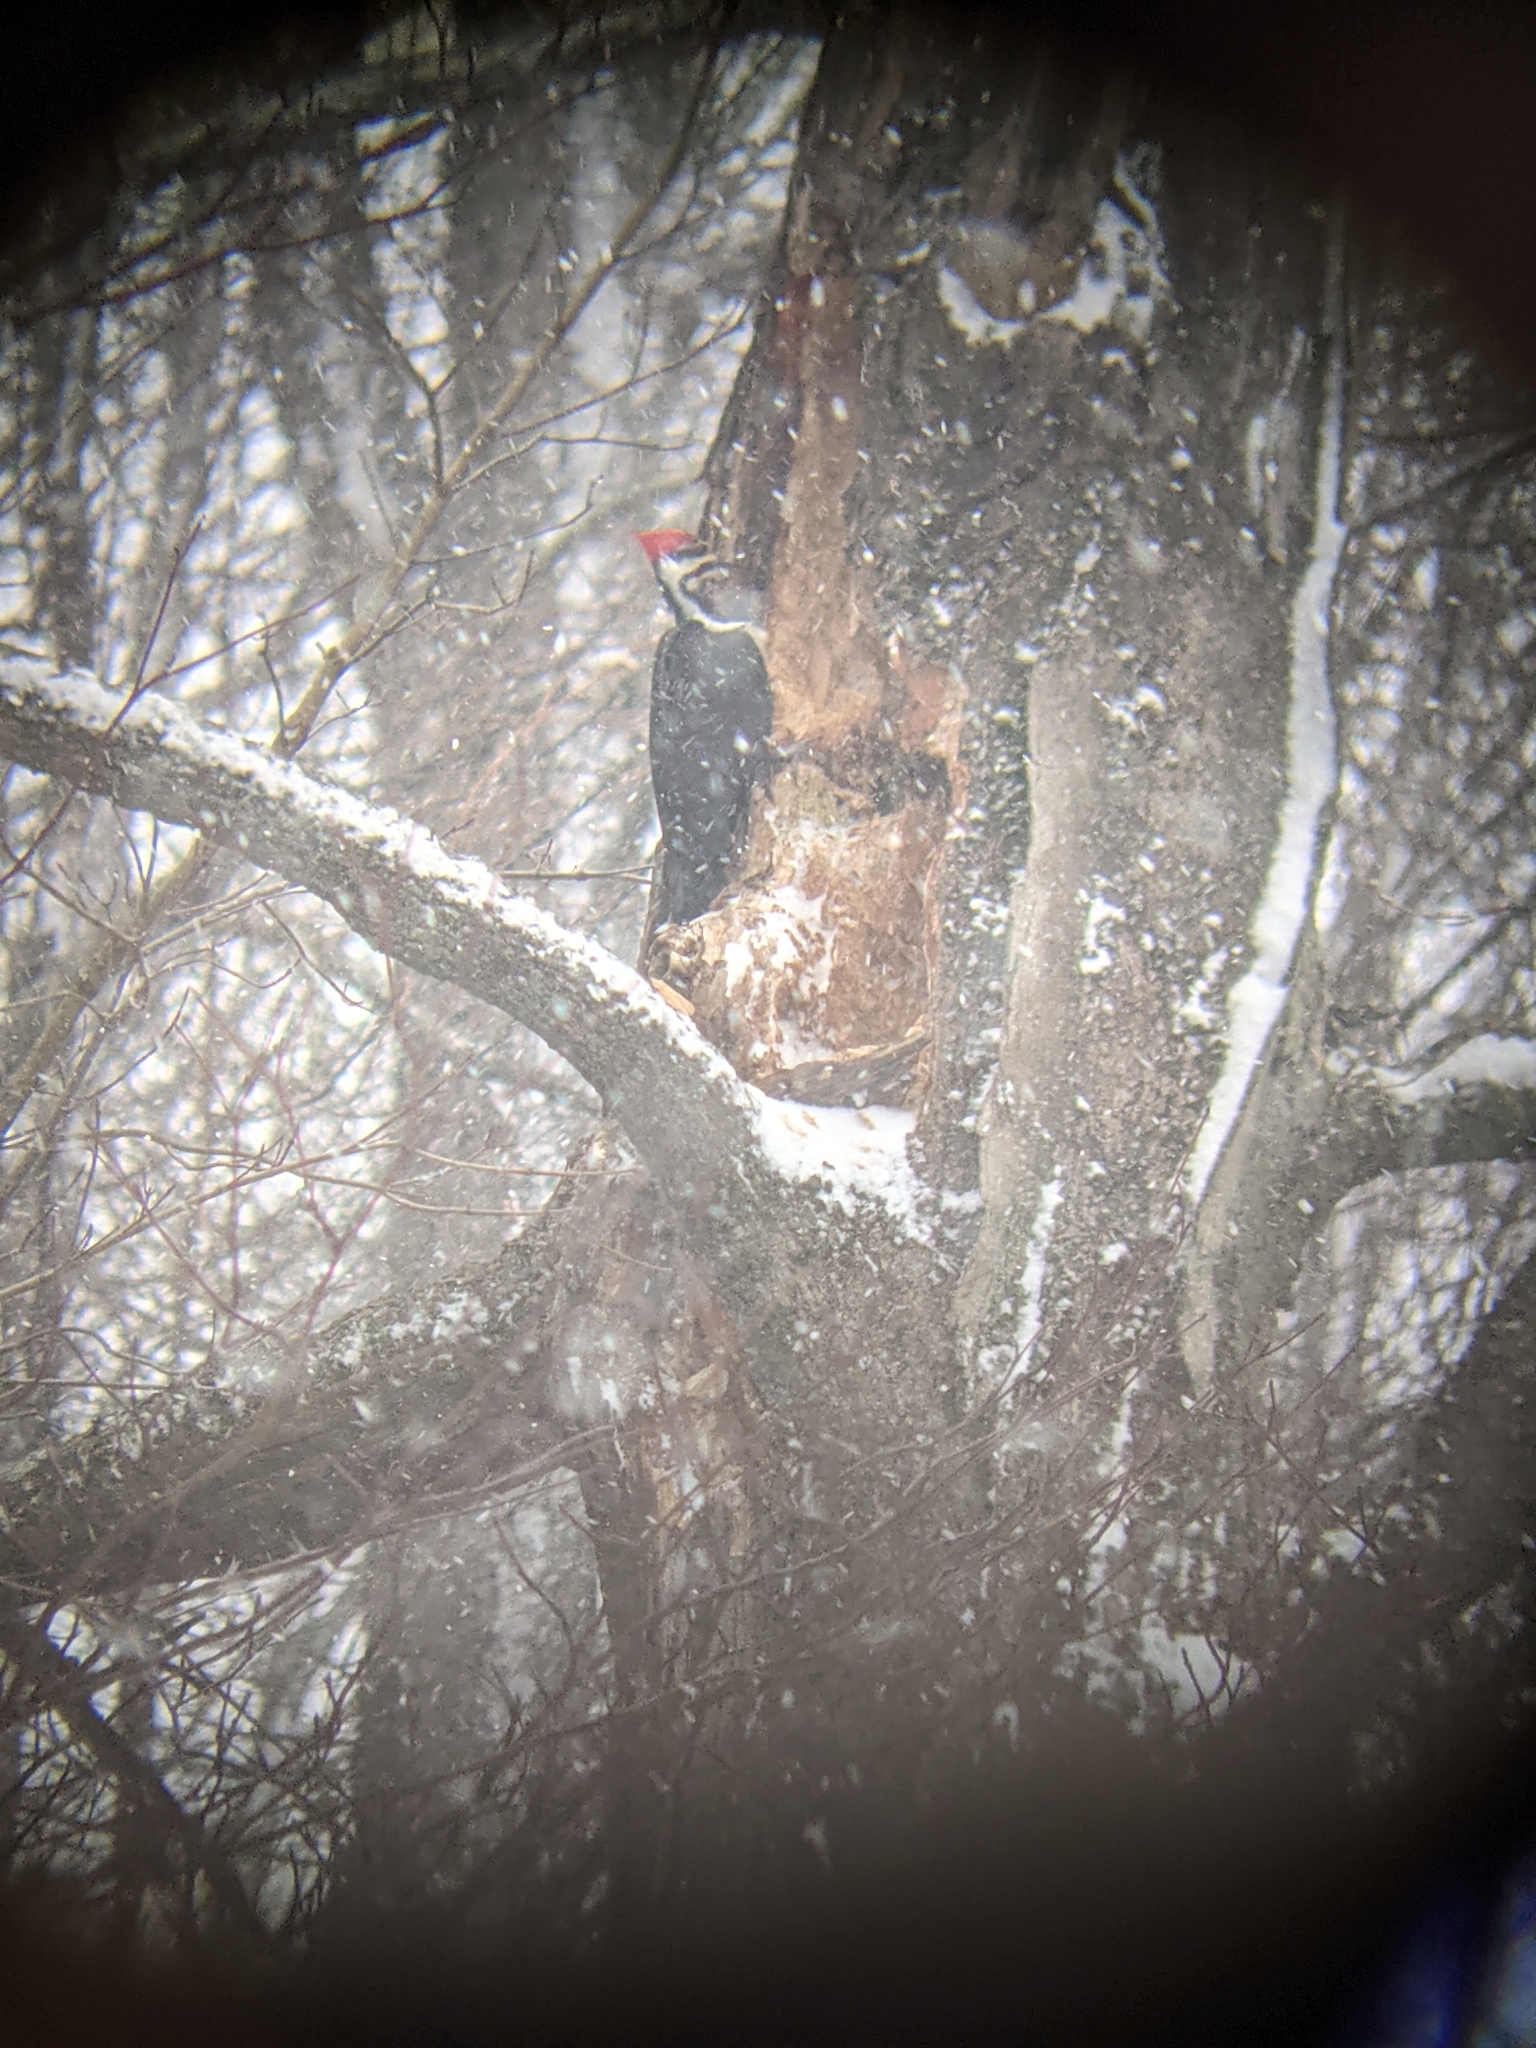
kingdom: Animalia
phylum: Chordata
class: Aves
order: Piciformes
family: Picidae
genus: Dryocopus
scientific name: Dryocopus pileatus
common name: Pileated woodpecker
